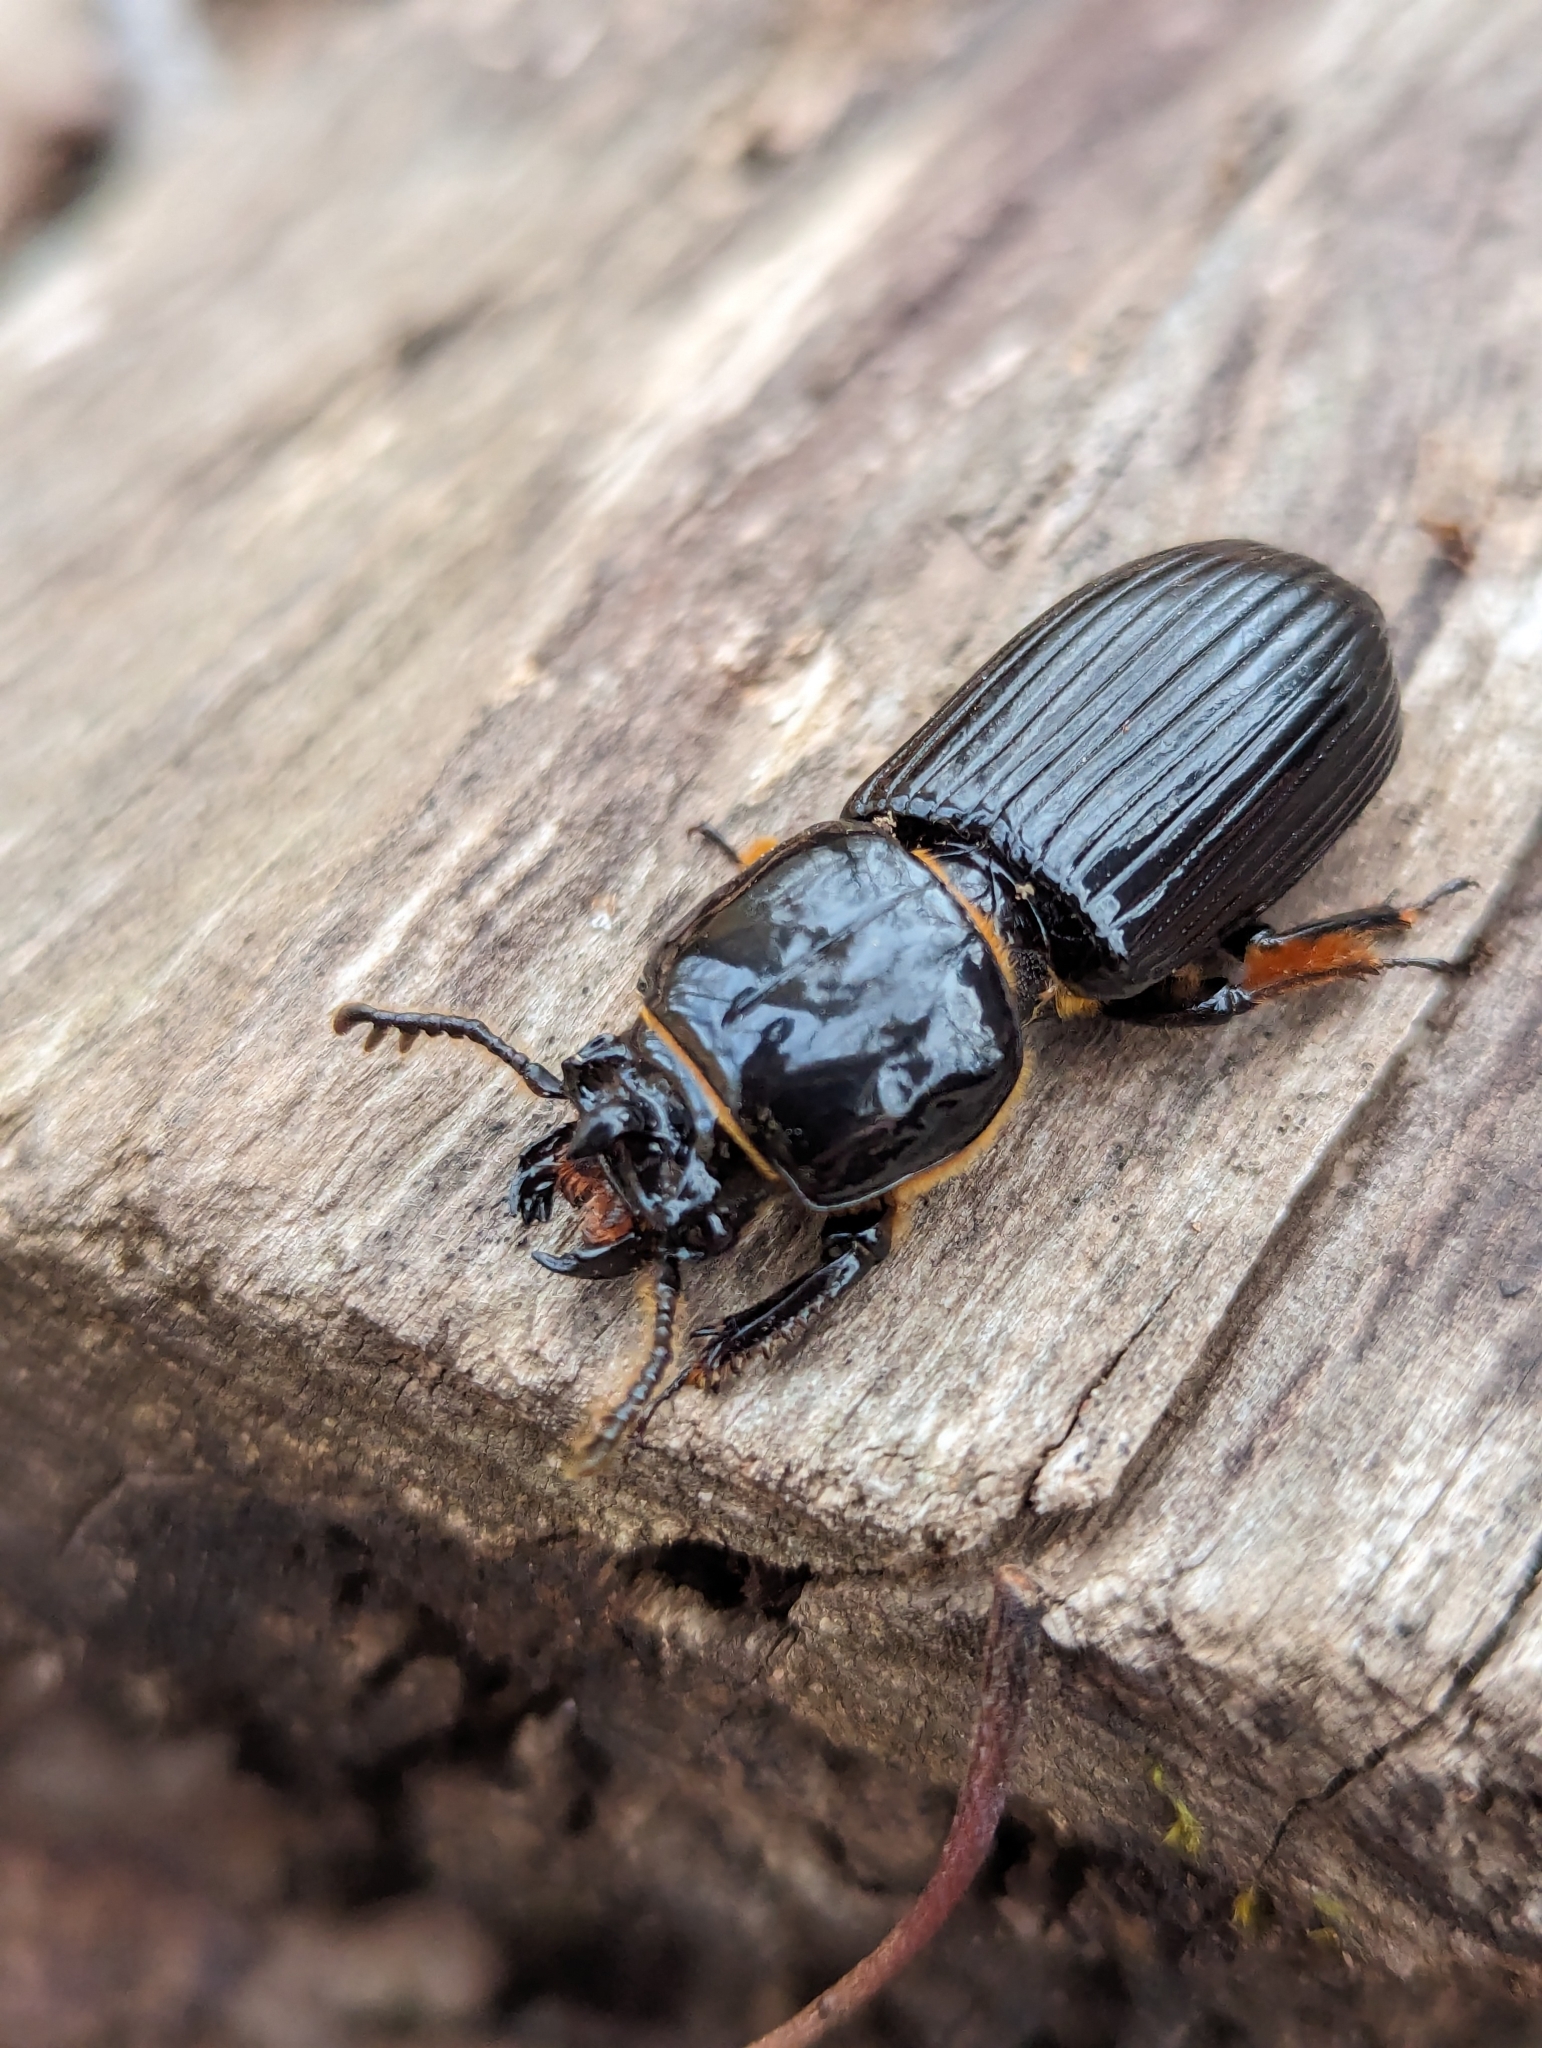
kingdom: Animalia
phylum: Arthropoda
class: Insecta
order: Coleoptera
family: Passalidae
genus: Odontotaenius
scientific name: Odontotaenius disjunctus
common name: Patent leather beetle
